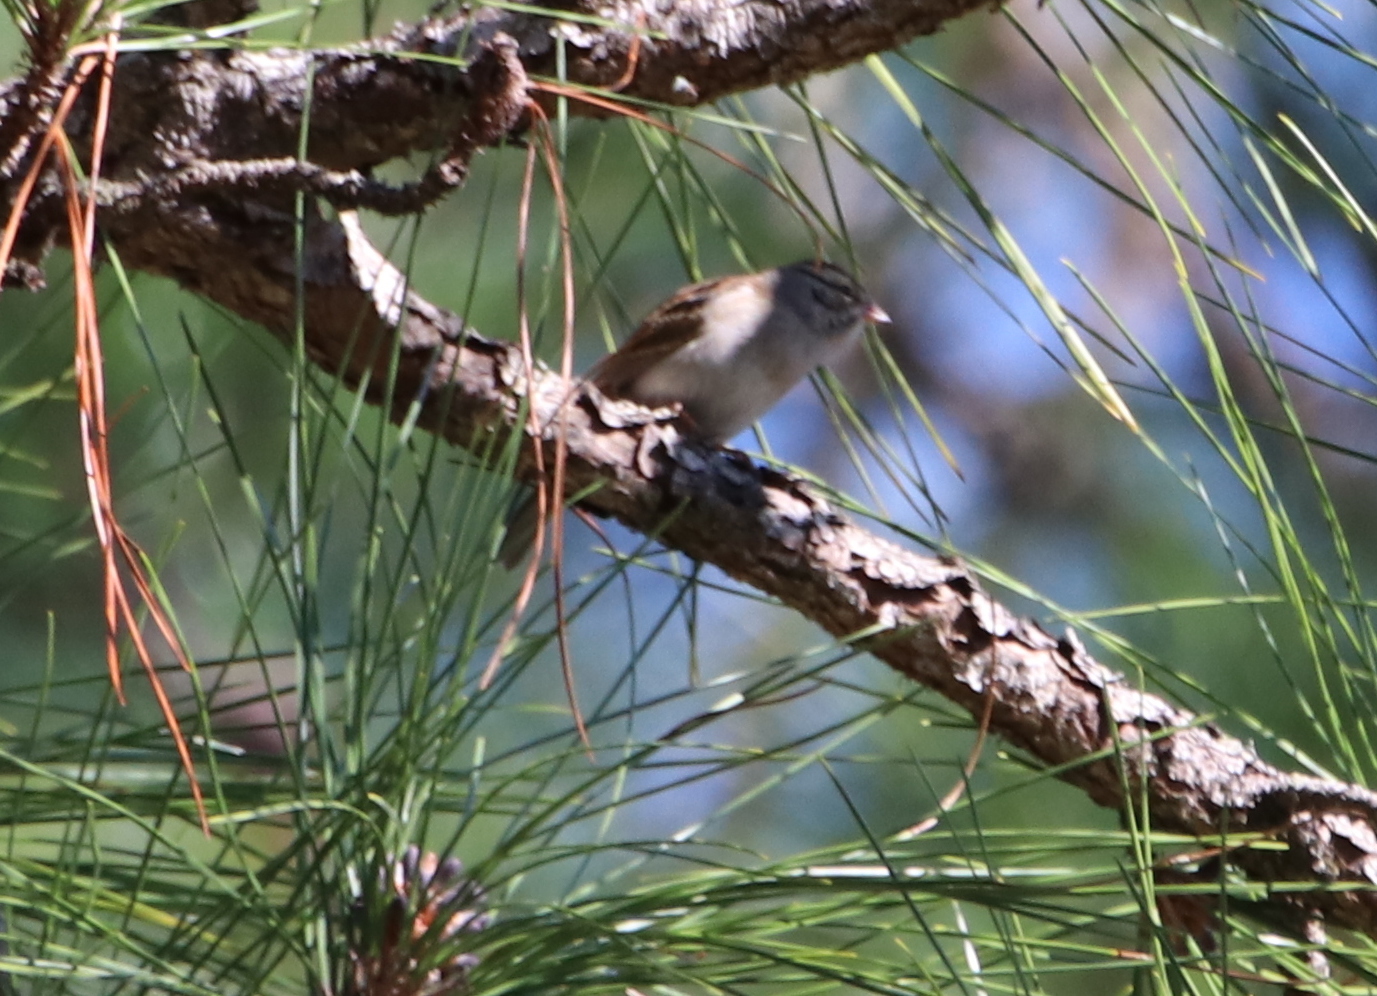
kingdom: Animalia
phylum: Chordata
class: Aves
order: Passeriformes
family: Passerellidae
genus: Spizella
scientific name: Spizella passerina
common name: Chipping sparrow
